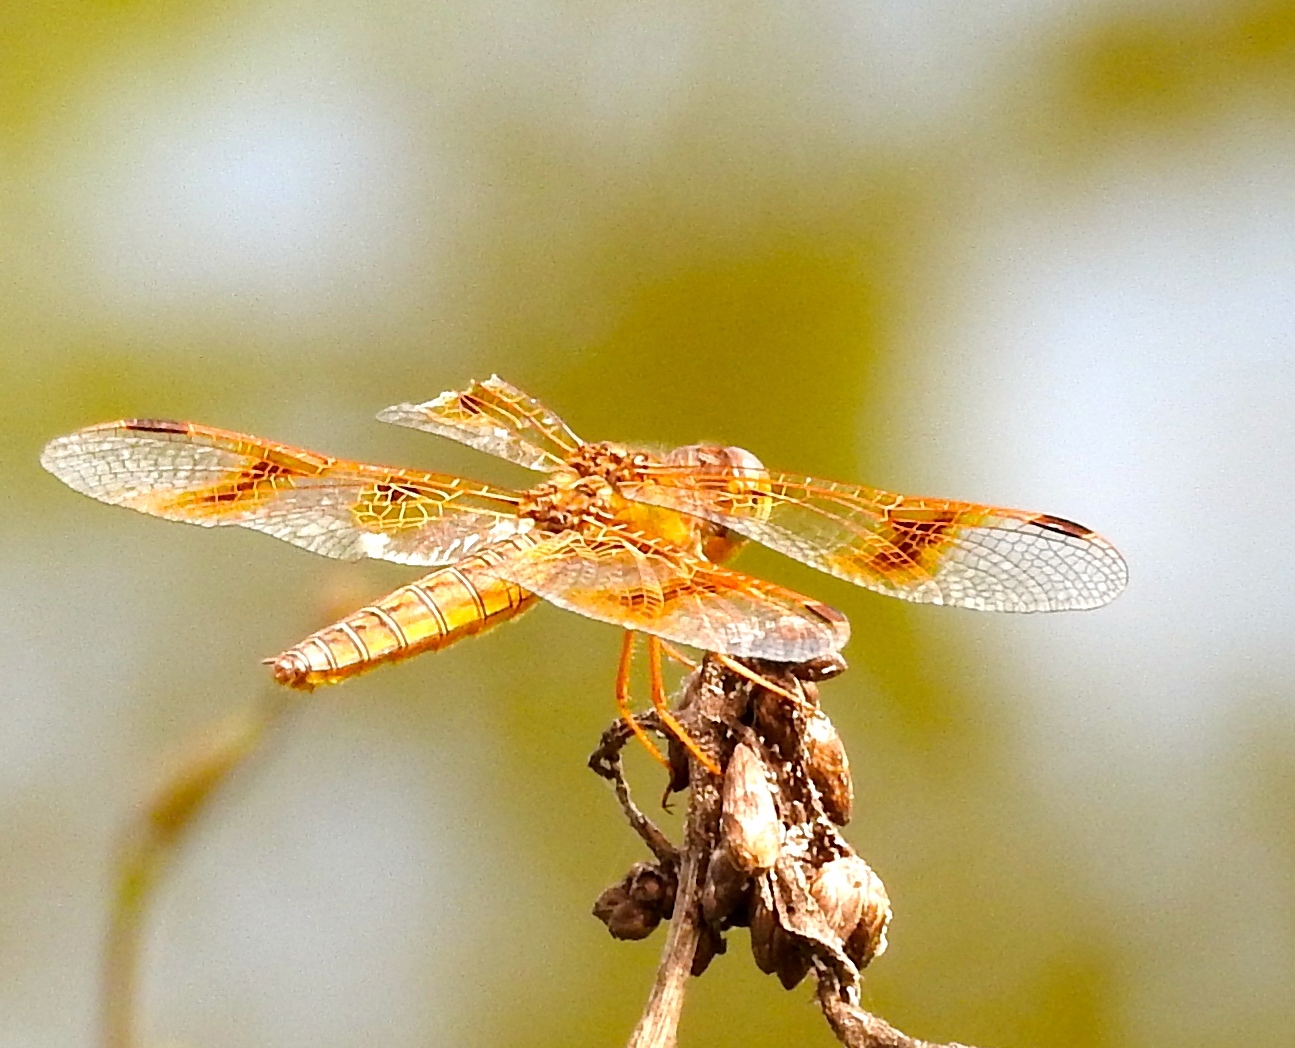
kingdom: Animalia
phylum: Arthropoda
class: Insecta
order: Odonata
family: Libellulidae
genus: Perithemis
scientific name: Perithemis
